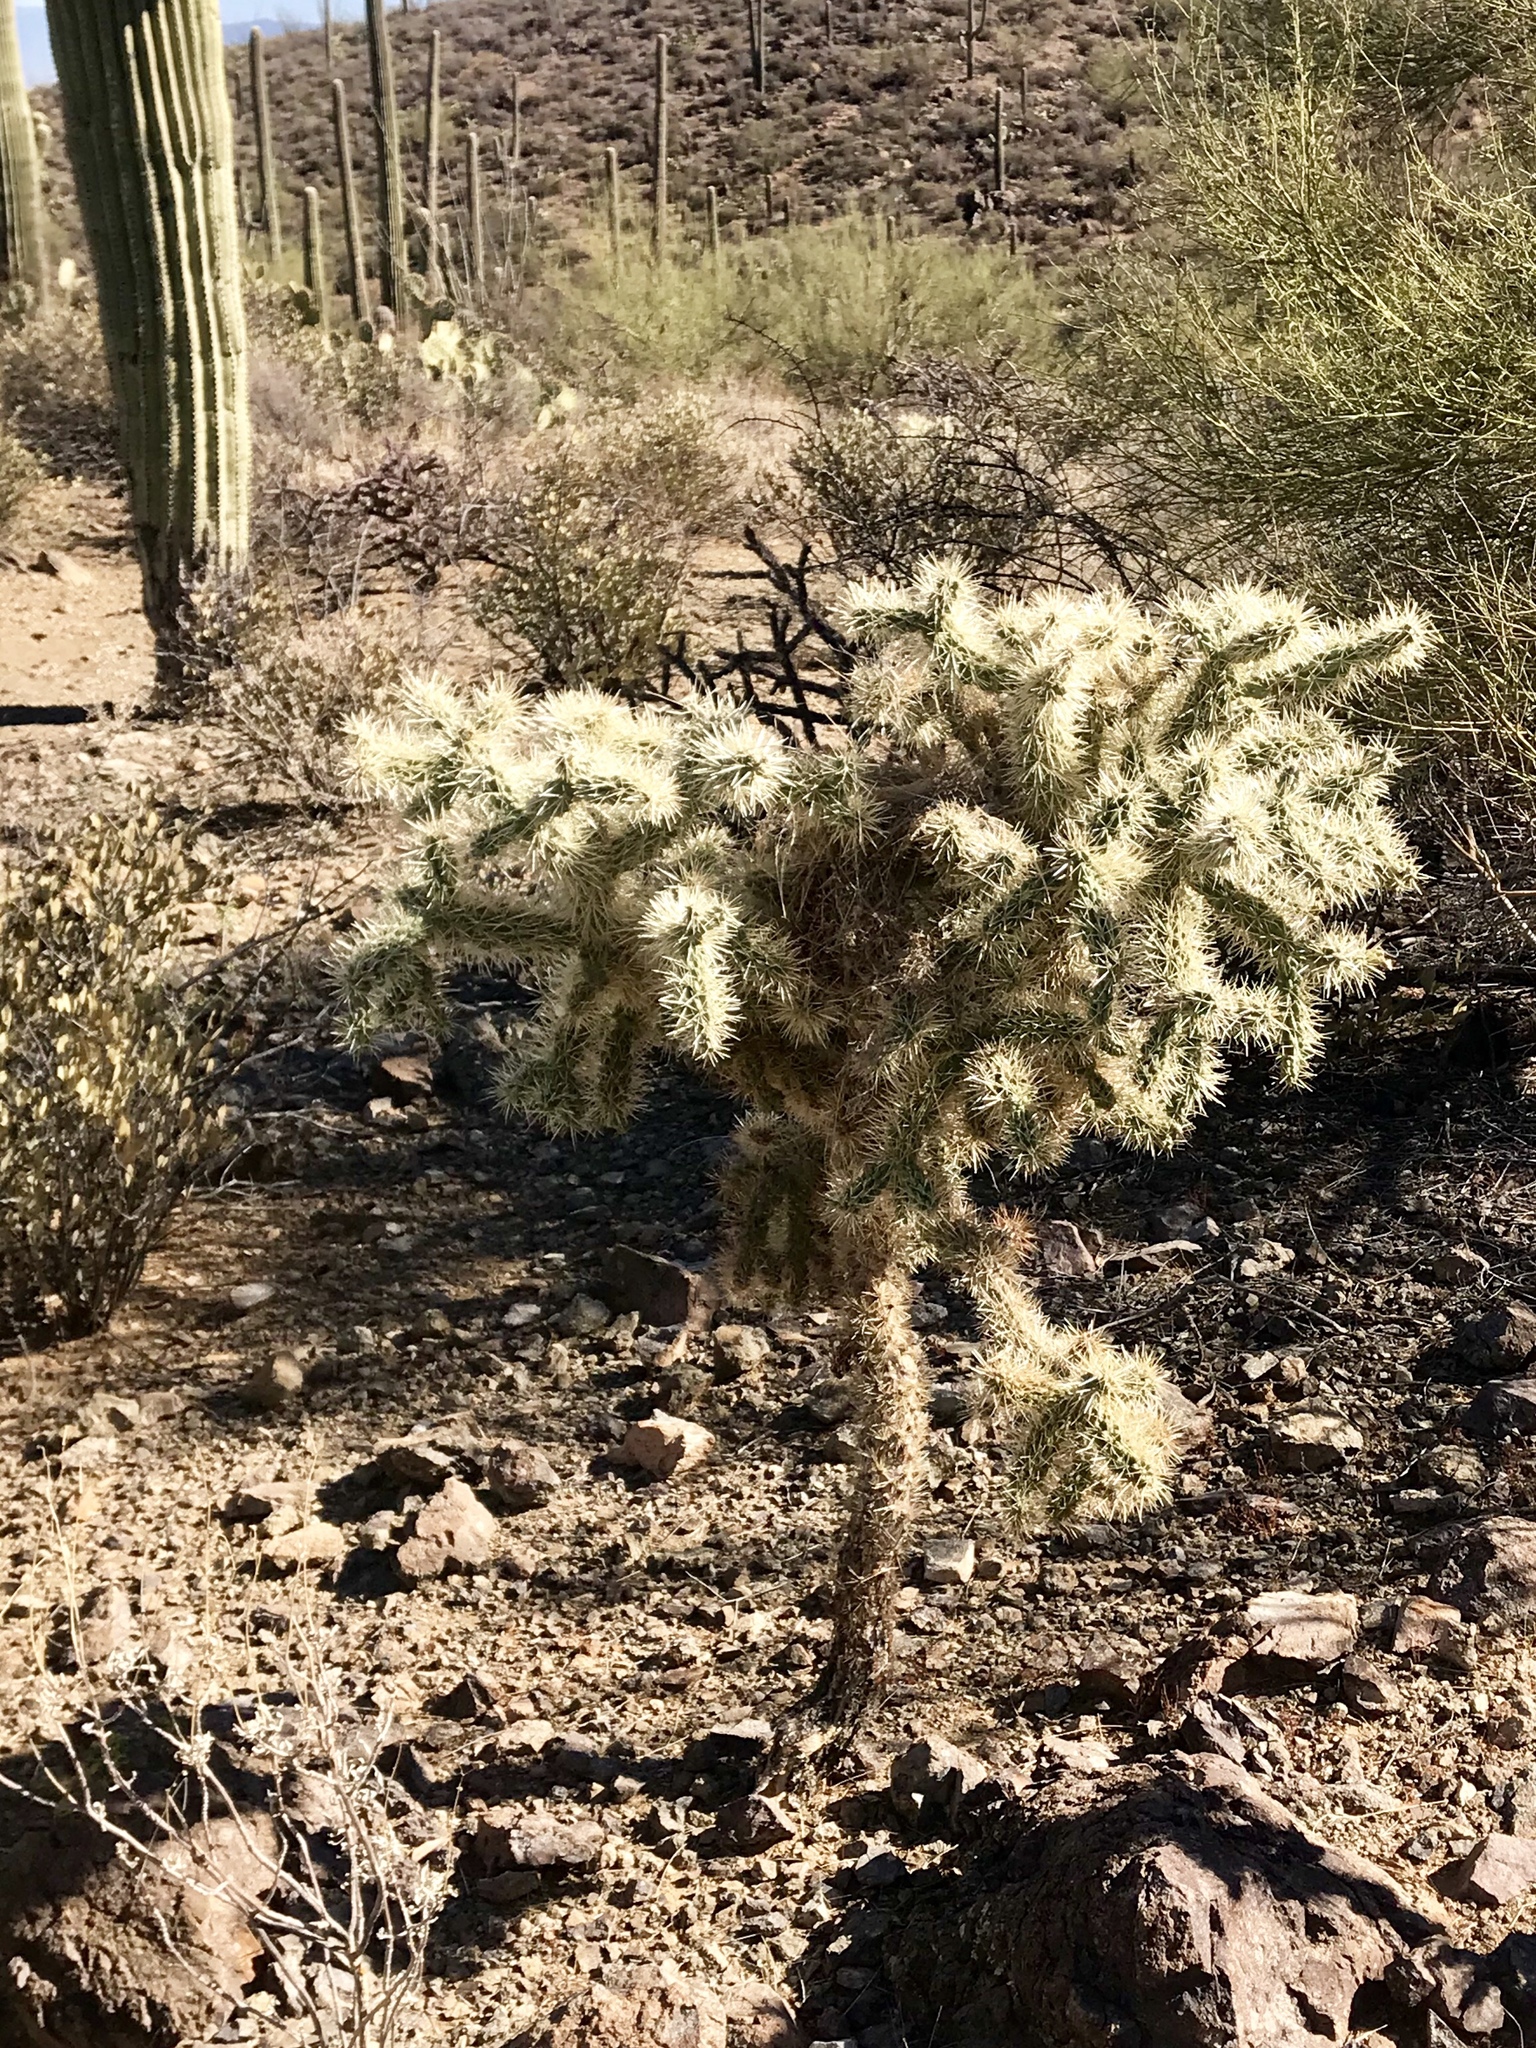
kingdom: Plantae
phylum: Tracheophyta
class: Magnoliopsida
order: Caryophyllales
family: Cactaceae
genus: Cylindropuntia
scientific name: Cylindropuntia fulgida
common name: Jumping cholla
